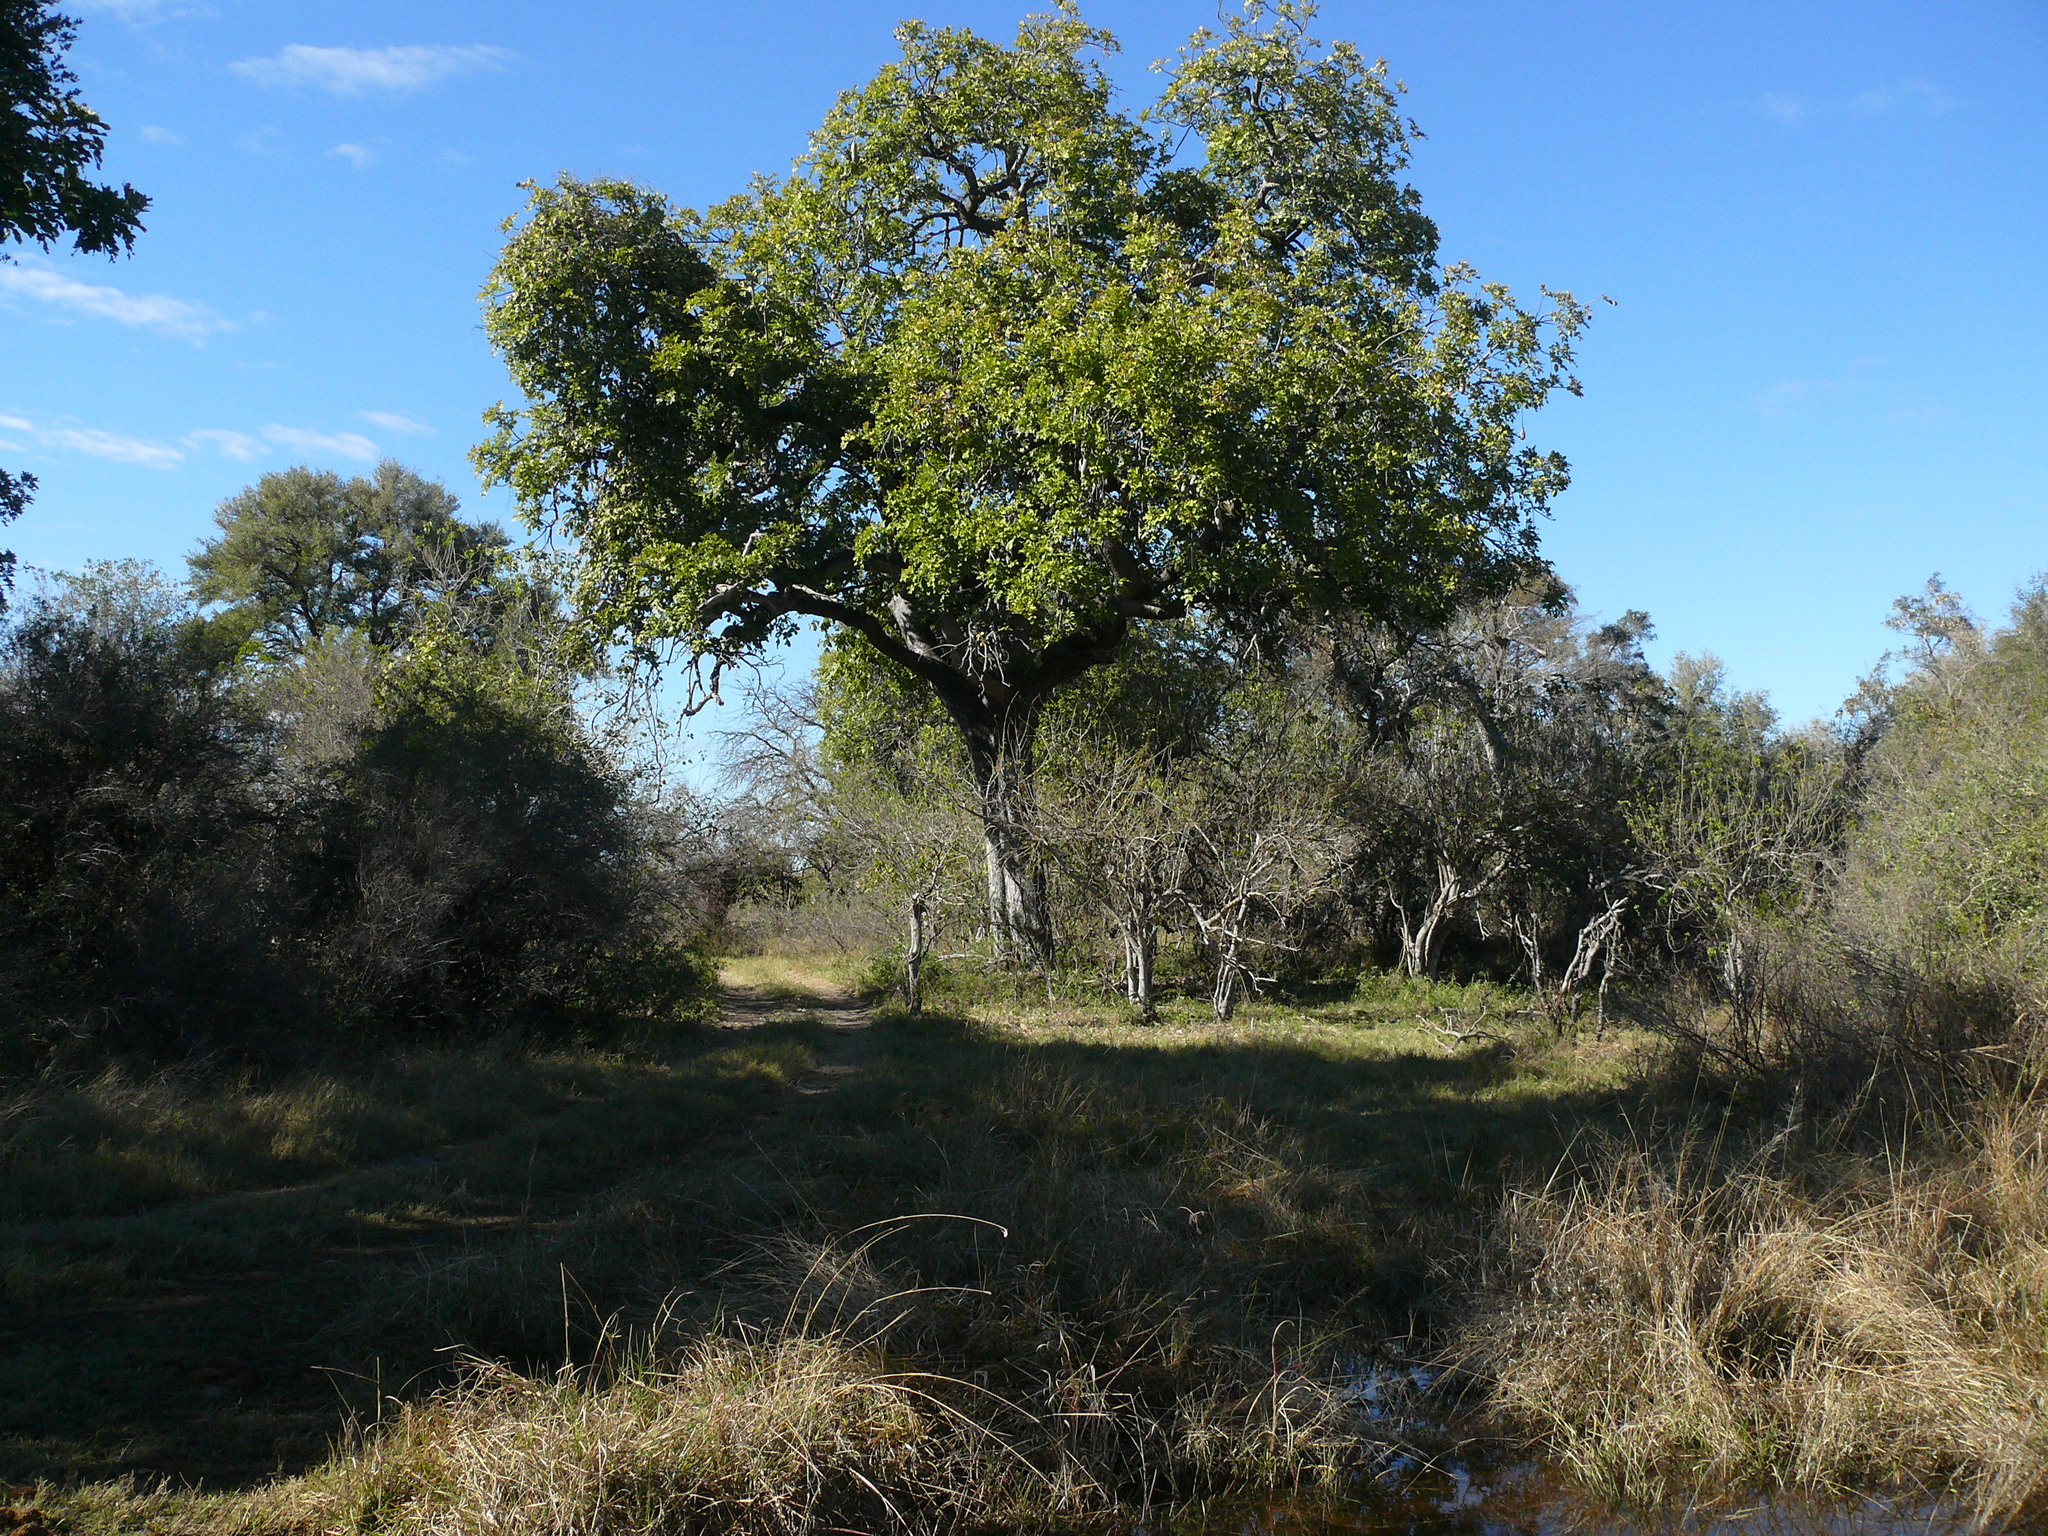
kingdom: Plantae
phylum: Tracheophyta
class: Magnoliopsida
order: Ericales
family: Ebenaceae
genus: Diospyros
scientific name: Diospyros mespiliformis
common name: Ebony diospyros
